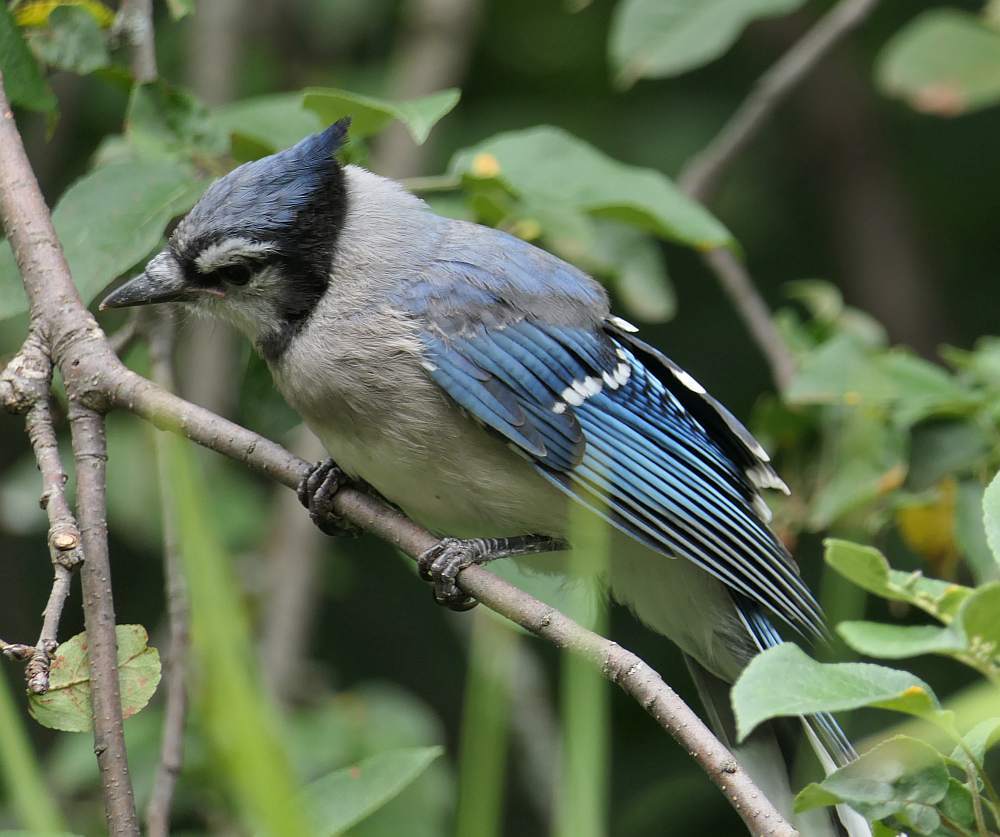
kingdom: Animalia
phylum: Chordata
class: Aves
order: Passeriformes
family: Corvidae
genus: Cyanocitta
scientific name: Cyanocitta cristata
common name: Blue jay
